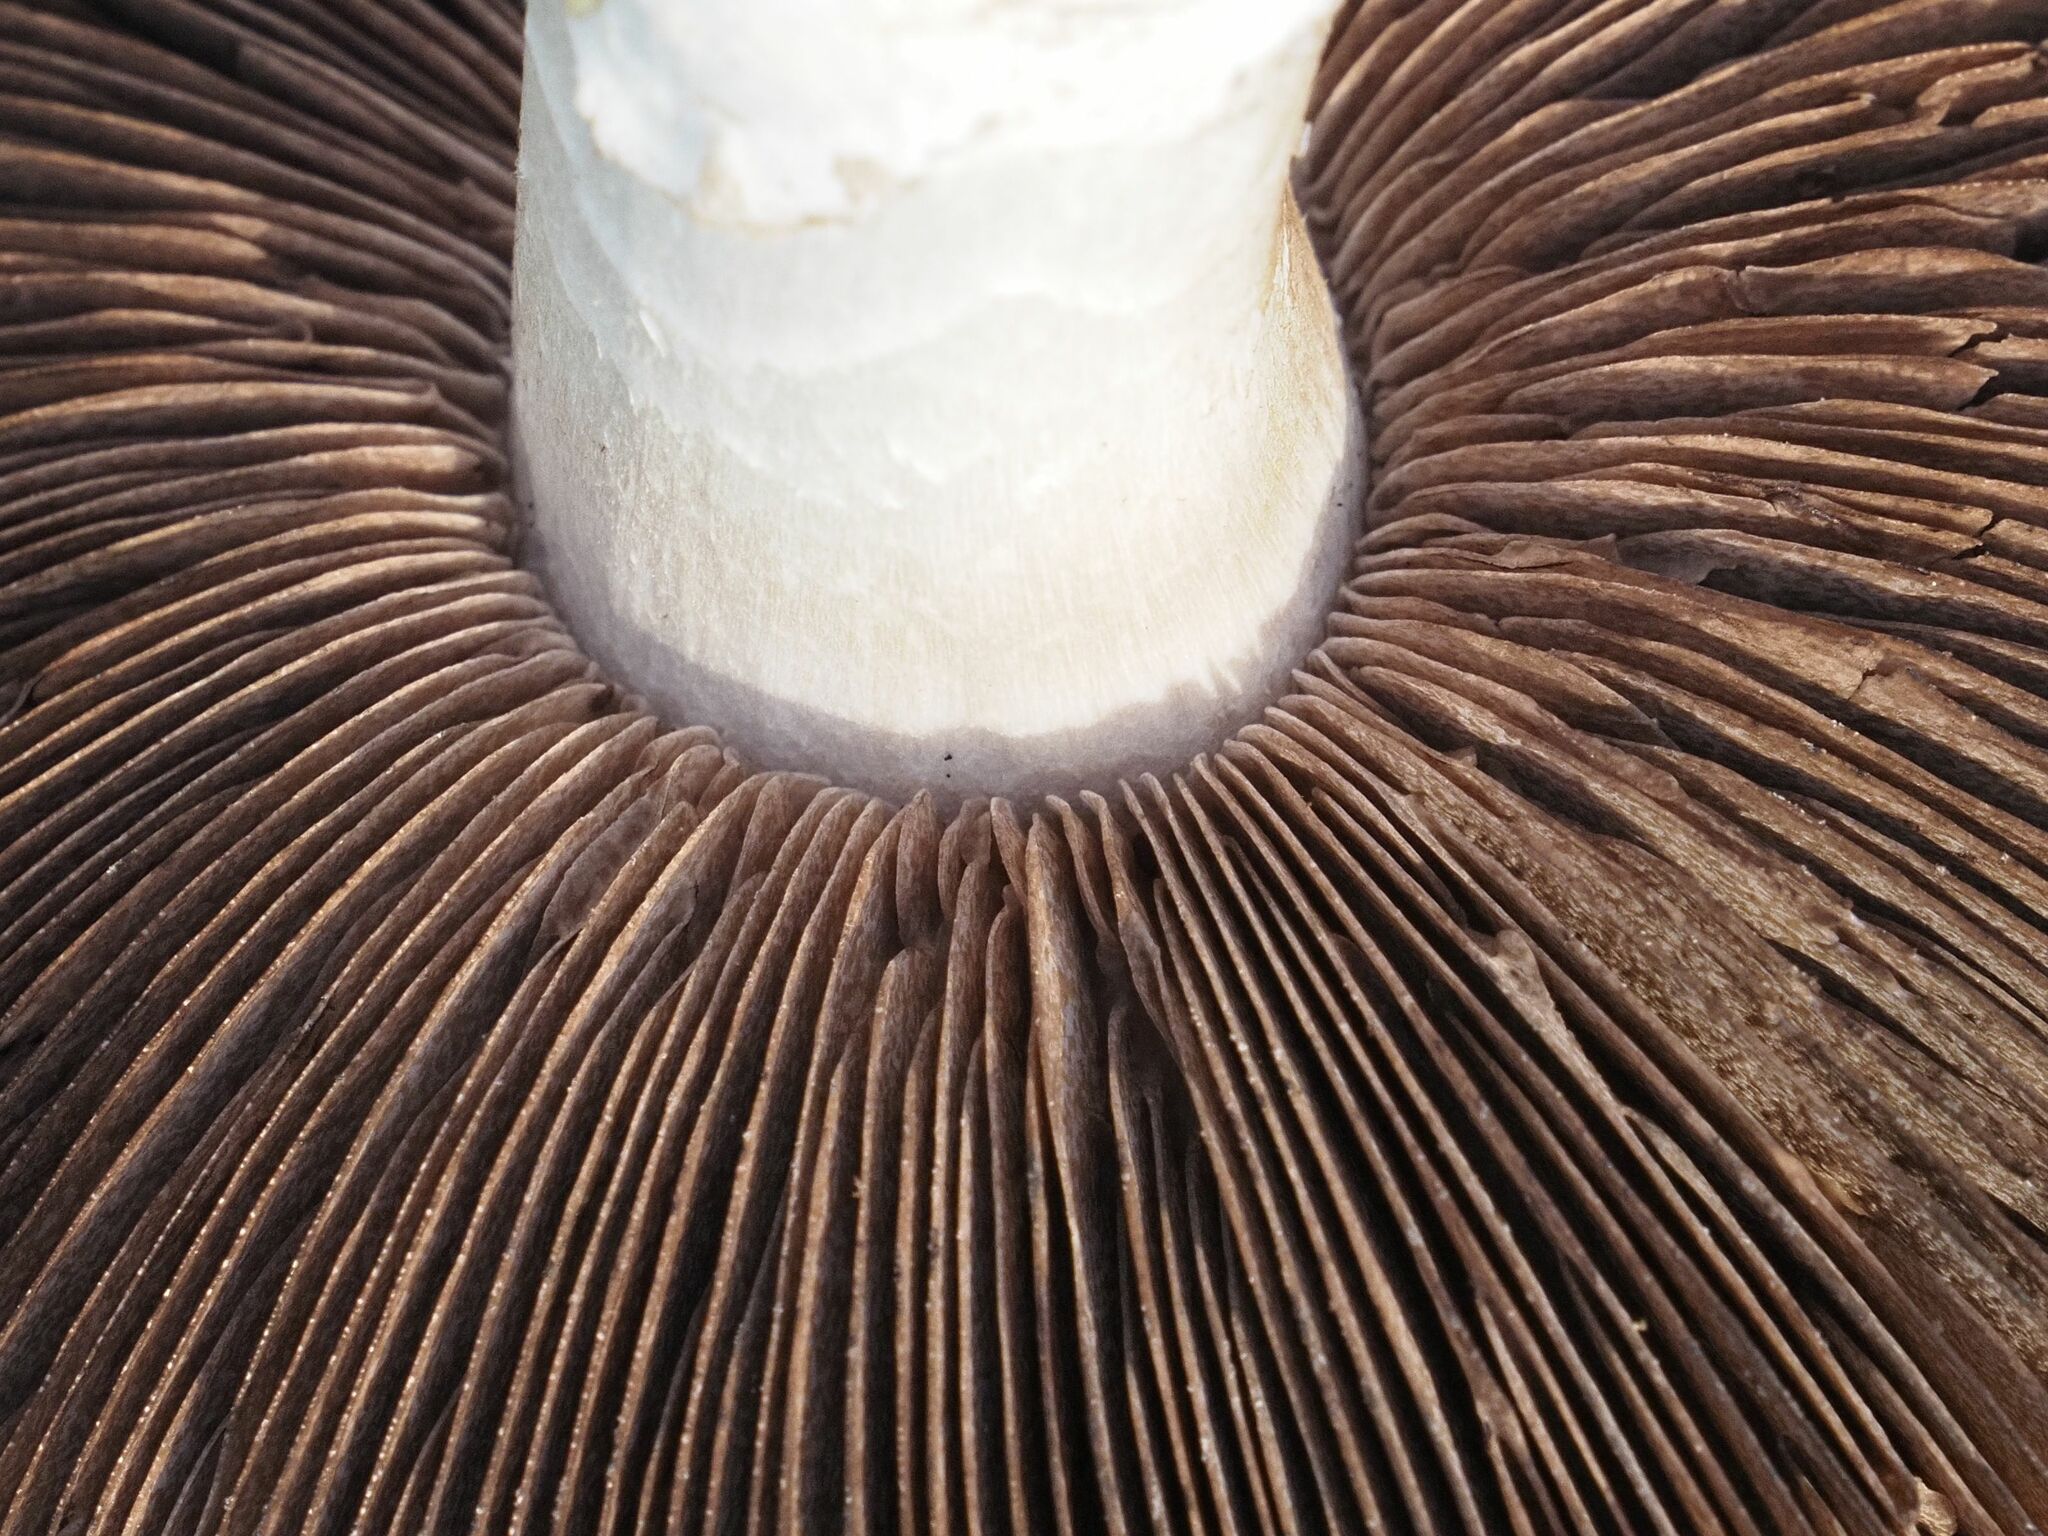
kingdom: Fungi
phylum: Basidiomycota
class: Agaricomycetes
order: Agaricales
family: Agaricaceae
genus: Agaricus
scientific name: Agaricus campestris
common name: Field mushroom
